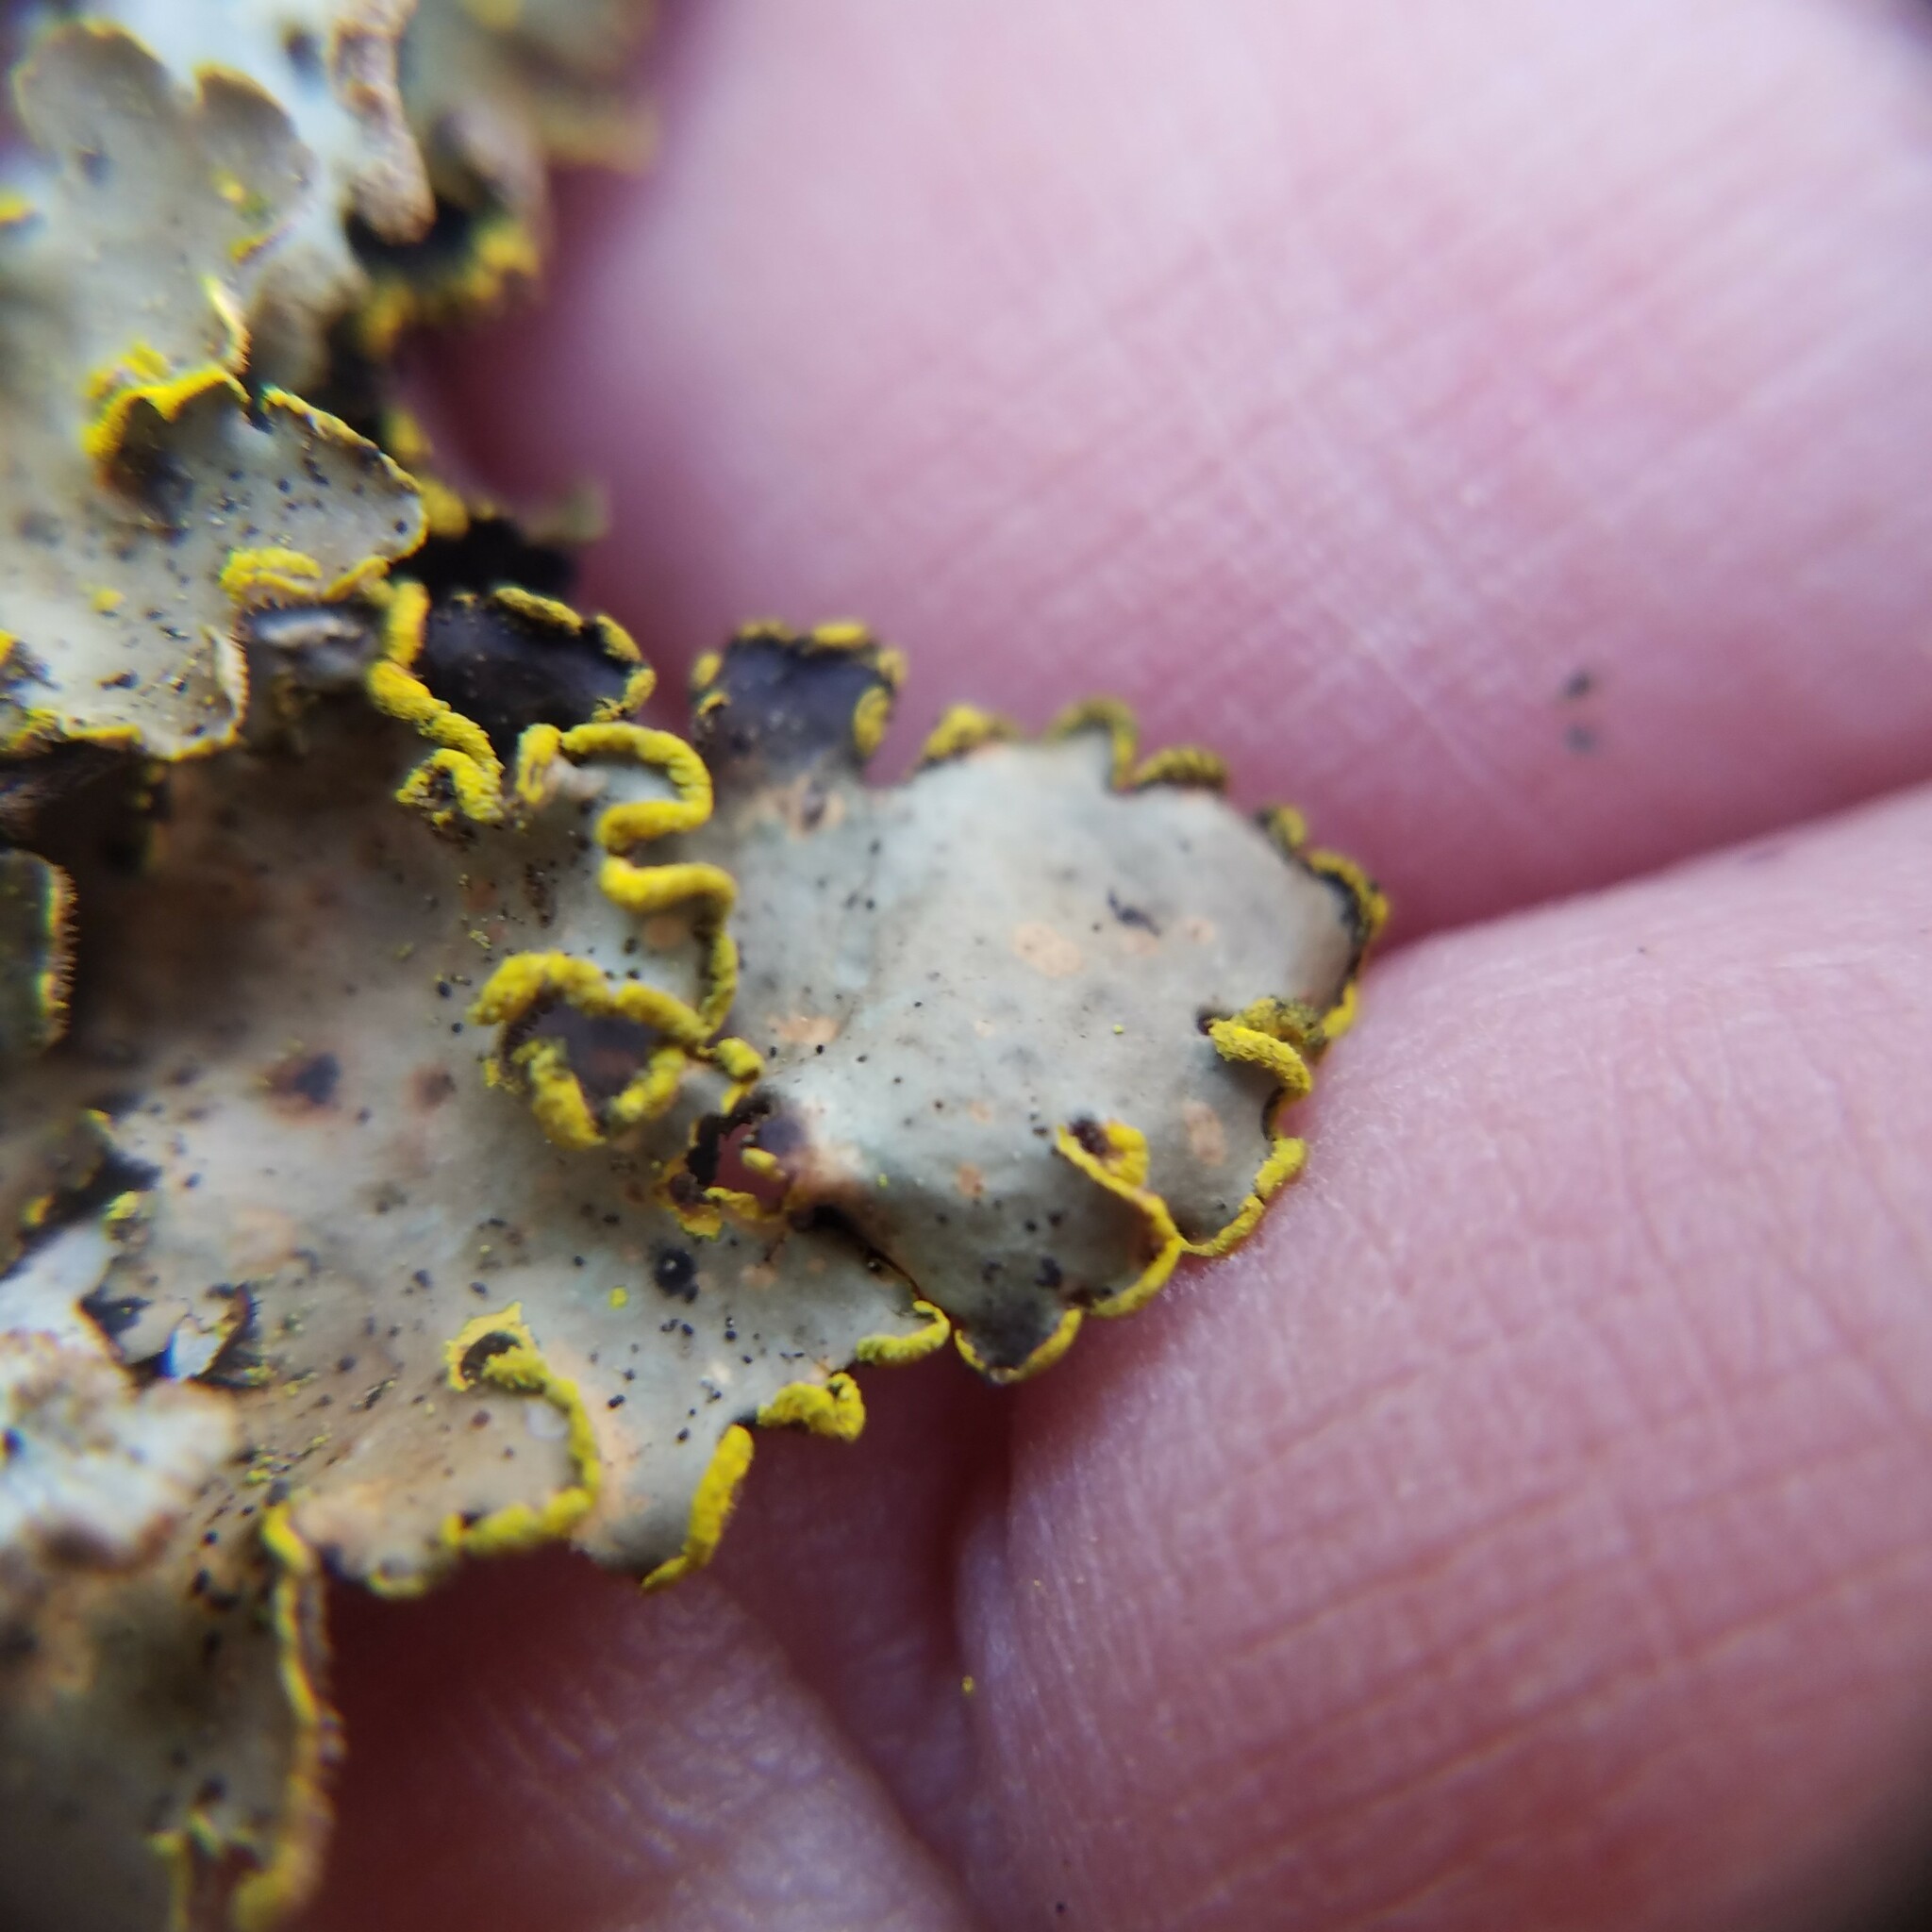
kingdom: Fungi
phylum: Ascomycota
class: Lecanoromycetes
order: Peltigerales
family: Lobariaceae
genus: Pseudocyphellaria
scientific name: Pseudocyphellaria aurata
